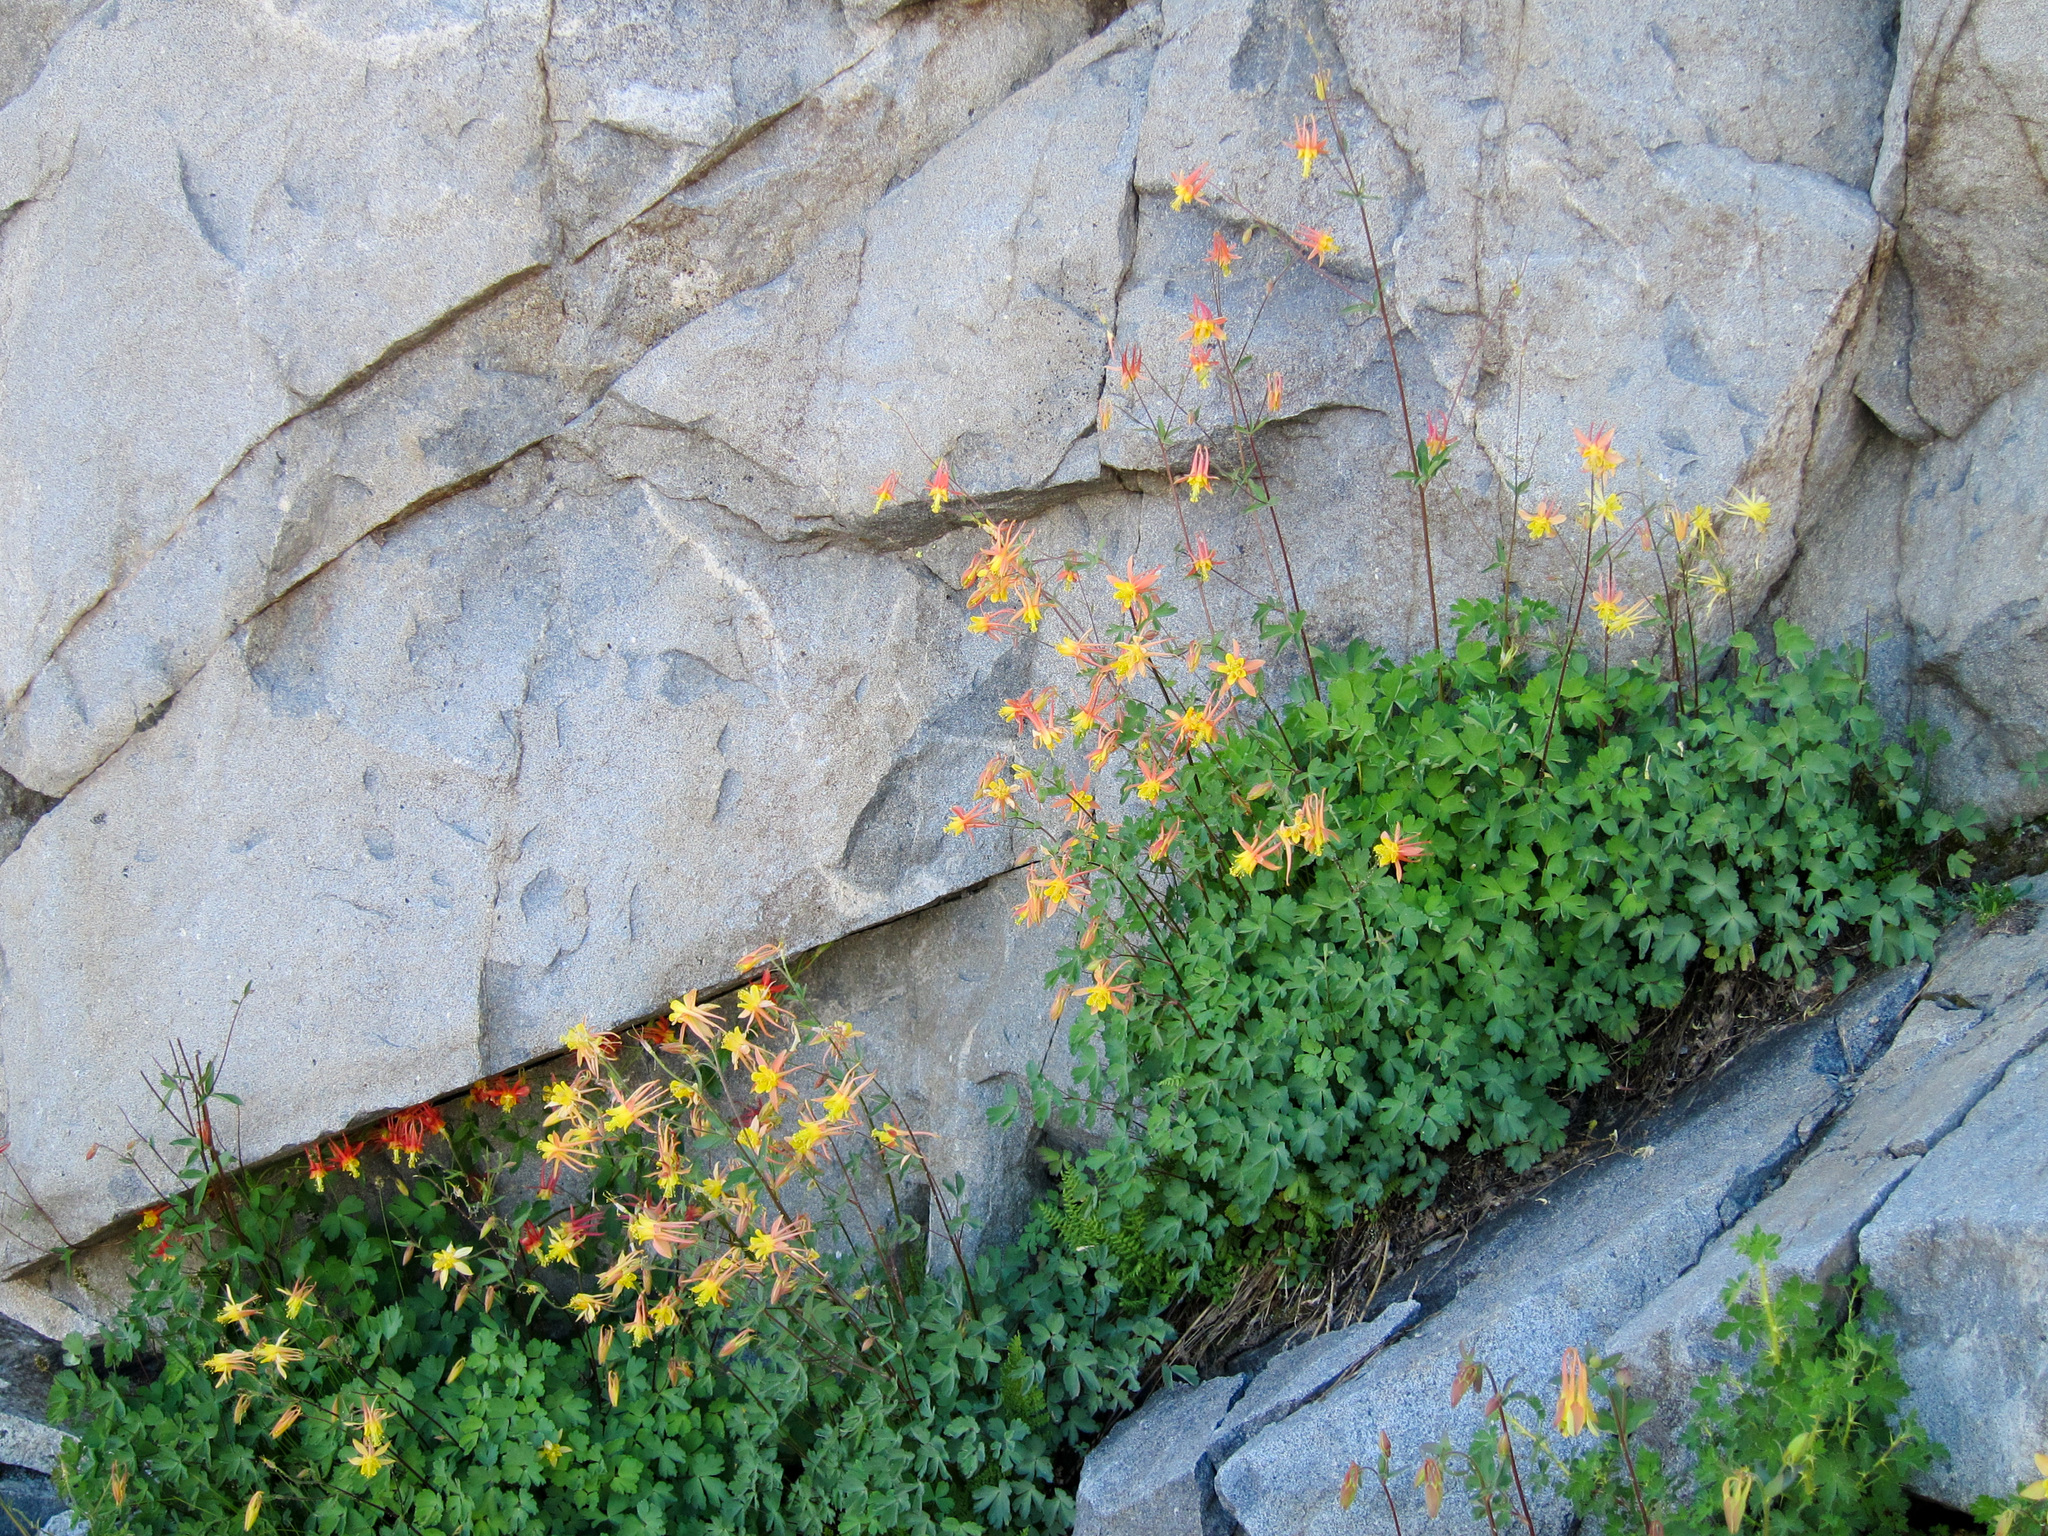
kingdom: Plantae
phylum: Tracheophyta
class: Magnoliopsida
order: Ranunculales
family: Ranunculaceae
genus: Aquilegia
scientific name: Aquilegia pubescens
